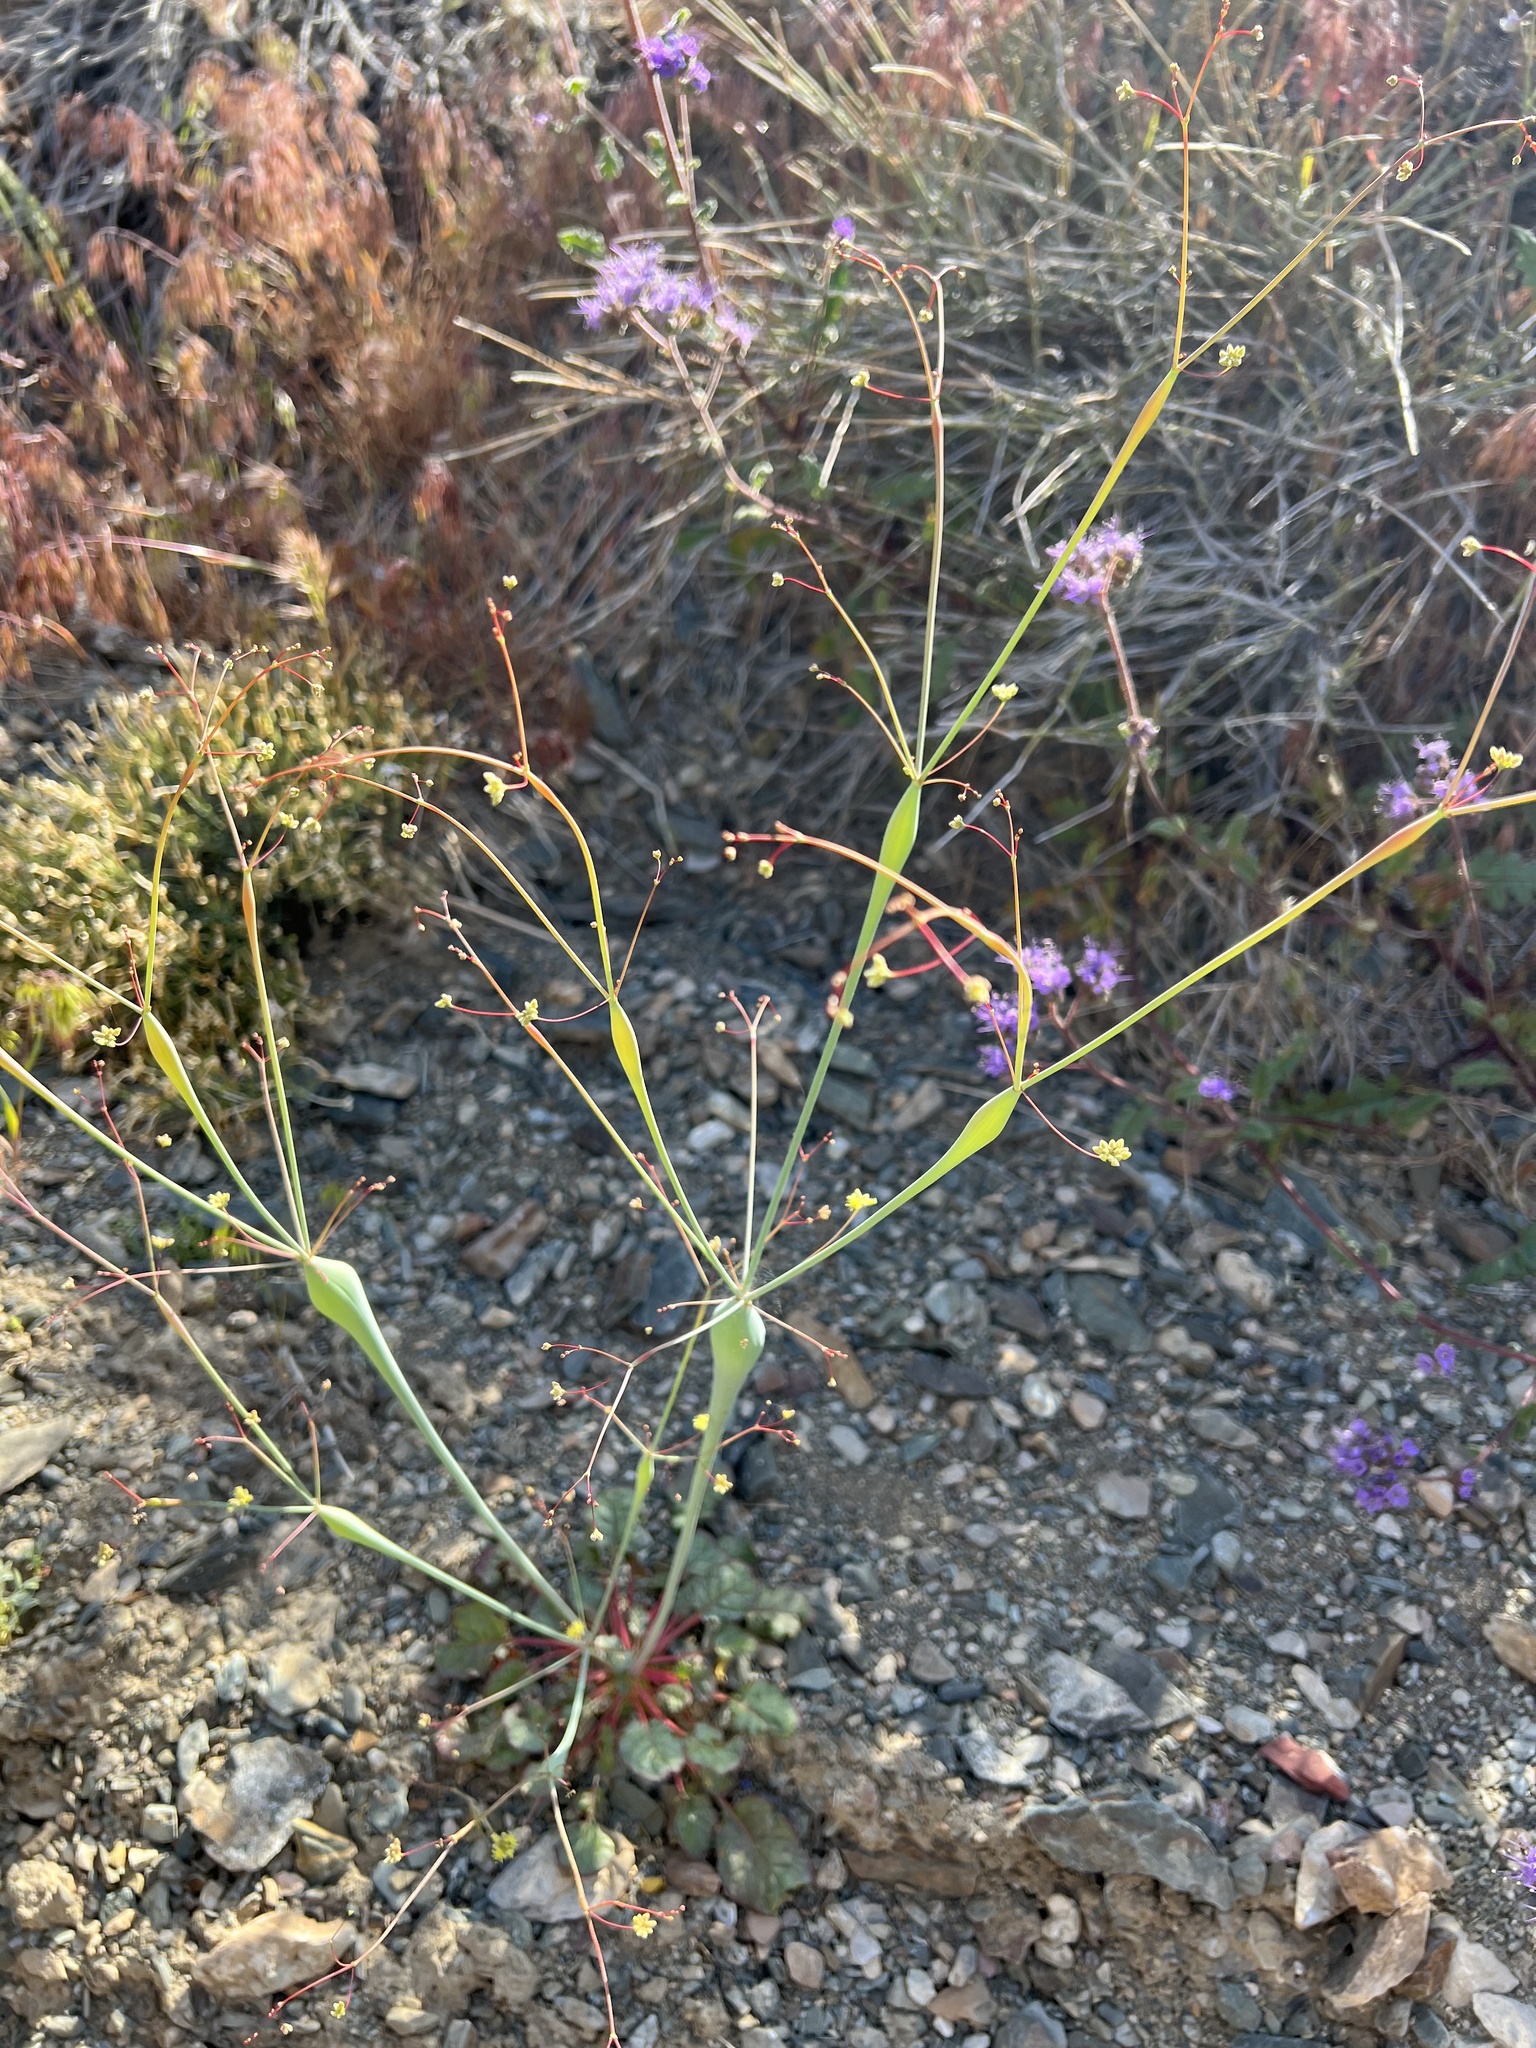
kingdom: Plantae
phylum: Tracheophyta
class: Magnoliopsida
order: Caryophyllales
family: Polygonaceae
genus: Eriogonum
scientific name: Eriogonum inflatum
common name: Desert trumpet
